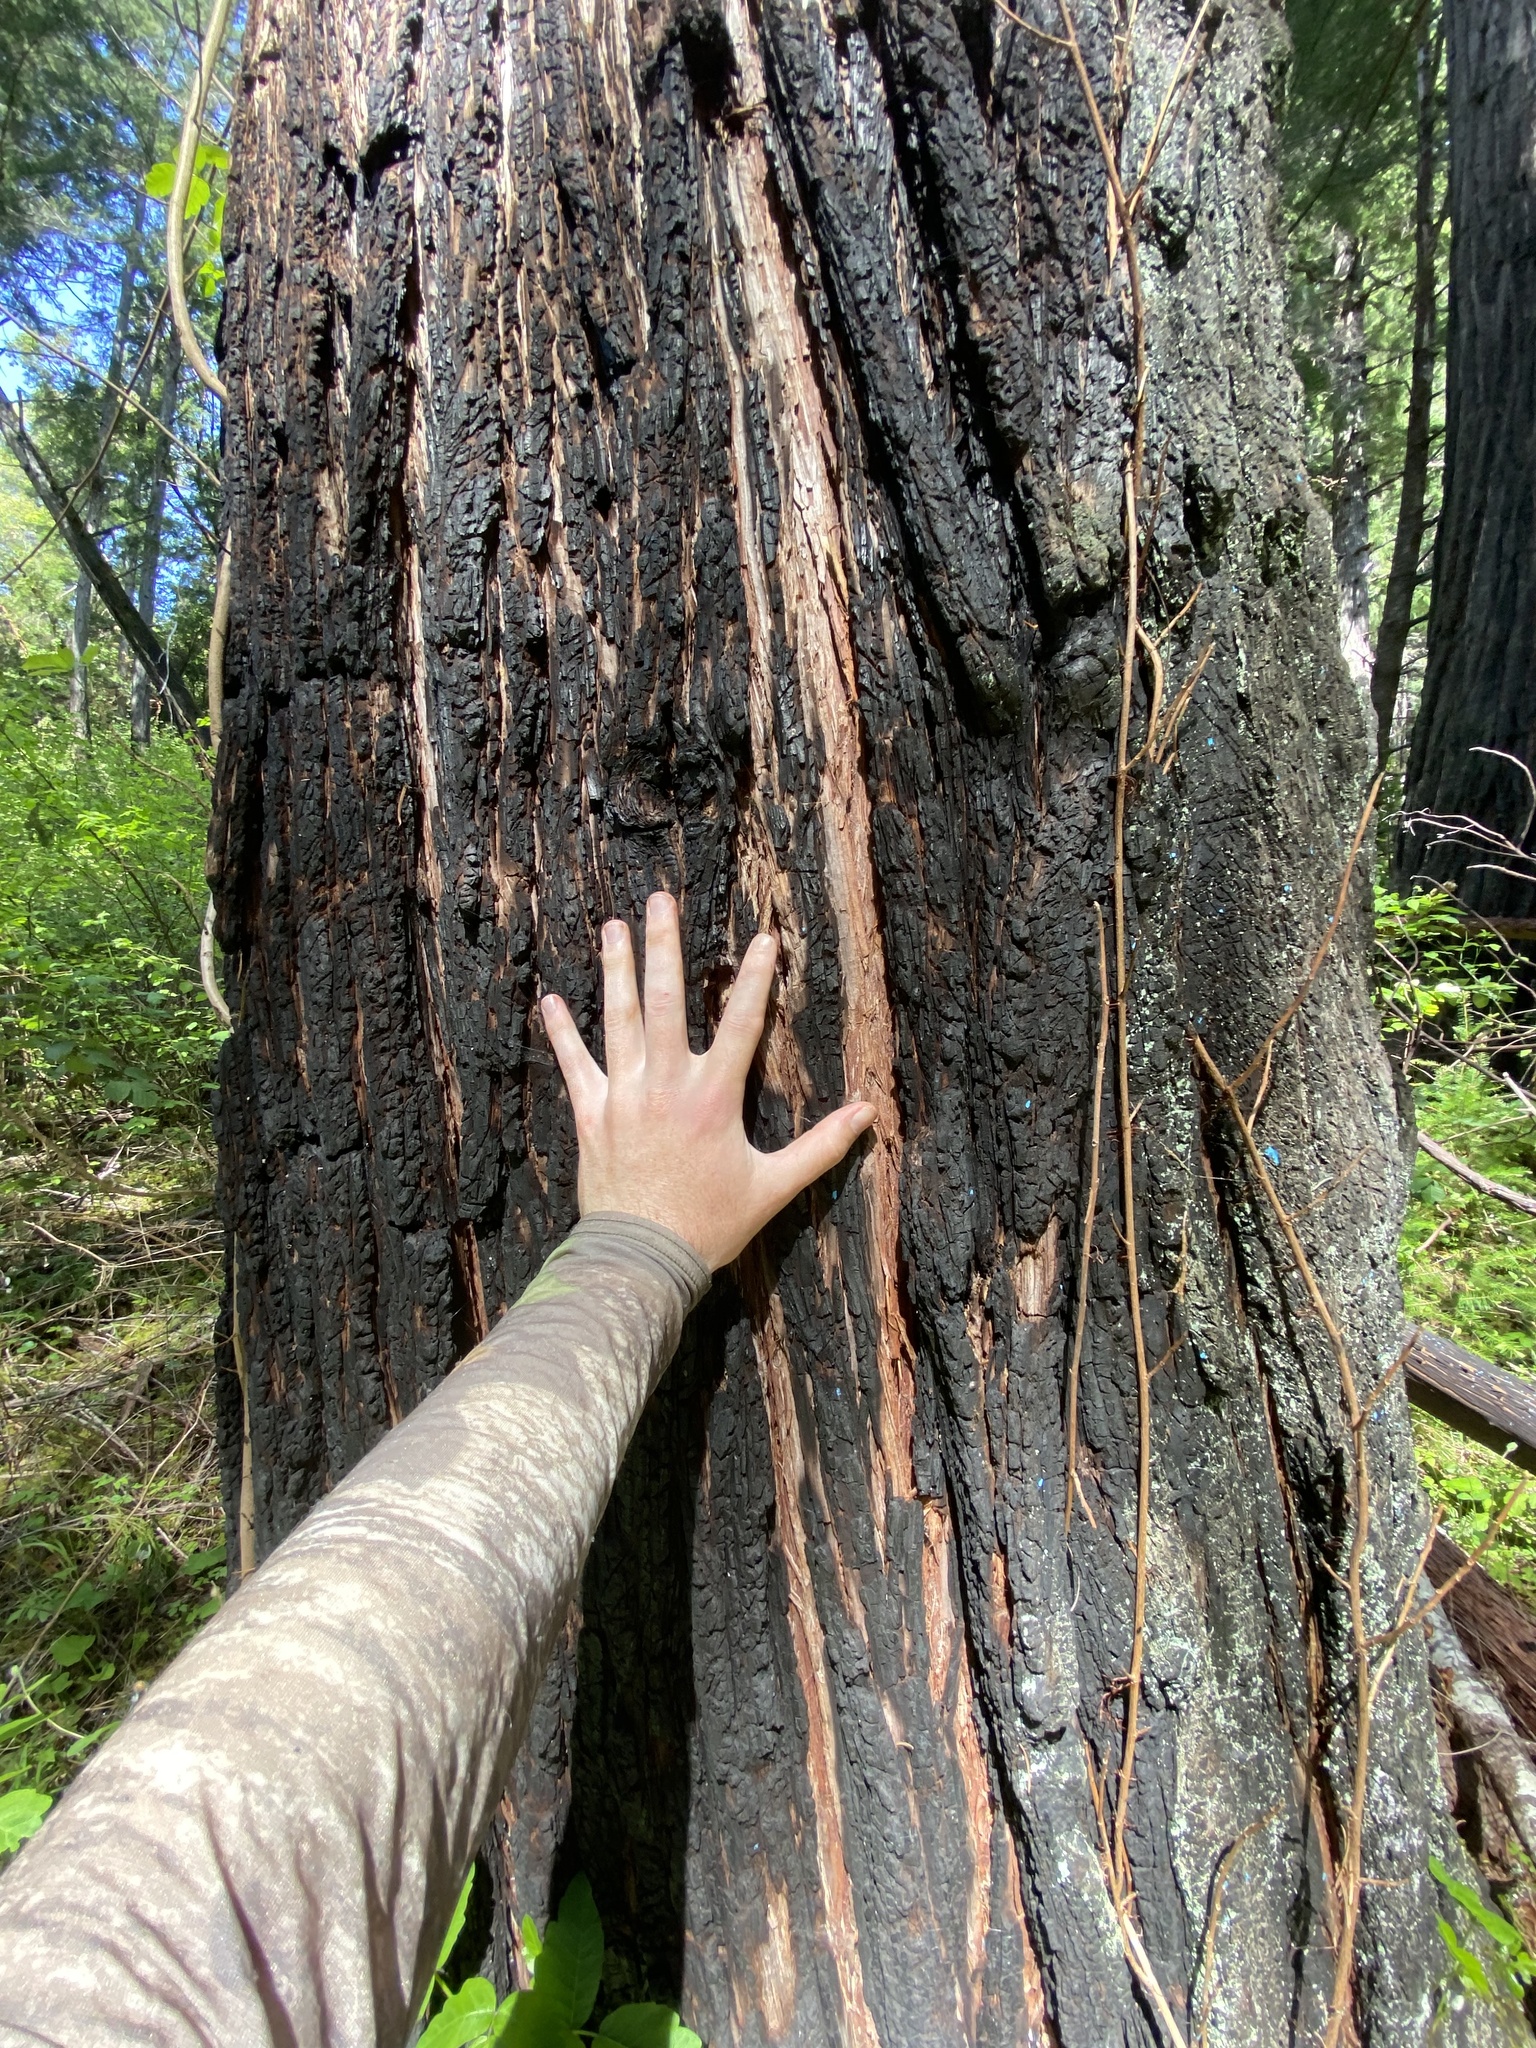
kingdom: Plantae
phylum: Tracheophyta
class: Pinopsida
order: Pinales
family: Cupressaceae
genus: Calocedrus
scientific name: Calocedrus decurrens
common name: Californian incense-cedar
